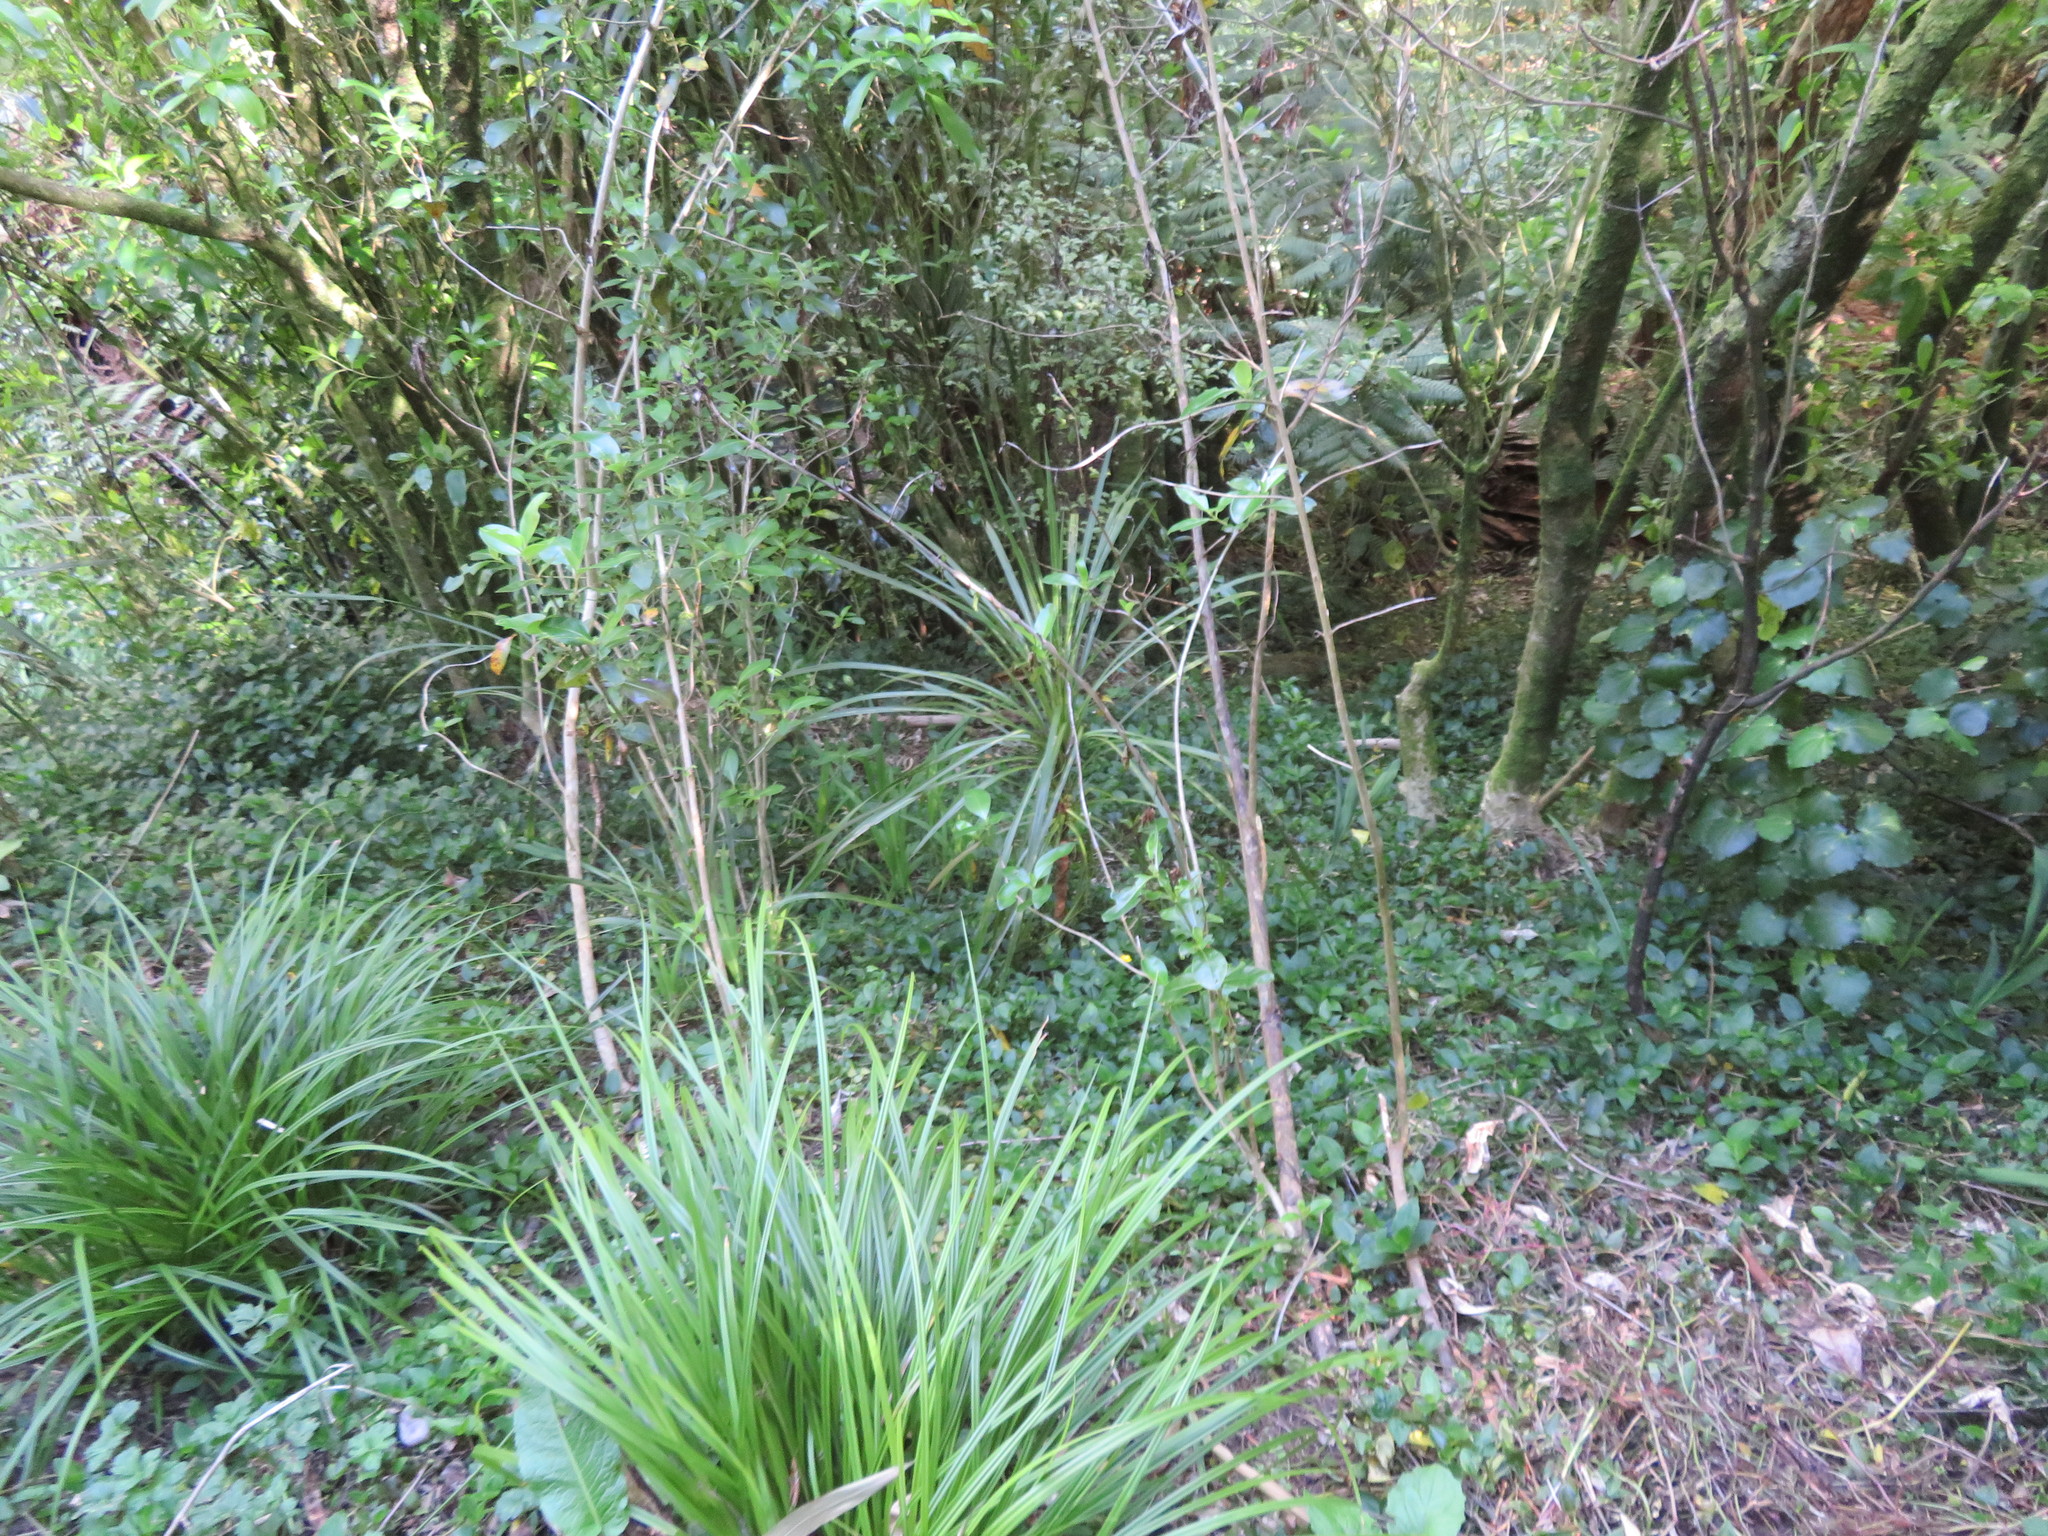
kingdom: Plantae
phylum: Tracheophyta
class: Liliopsida
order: Asparagales
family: Asparagaceae
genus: Cordyline
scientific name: Cordyline australis
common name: Cabbage-palm
